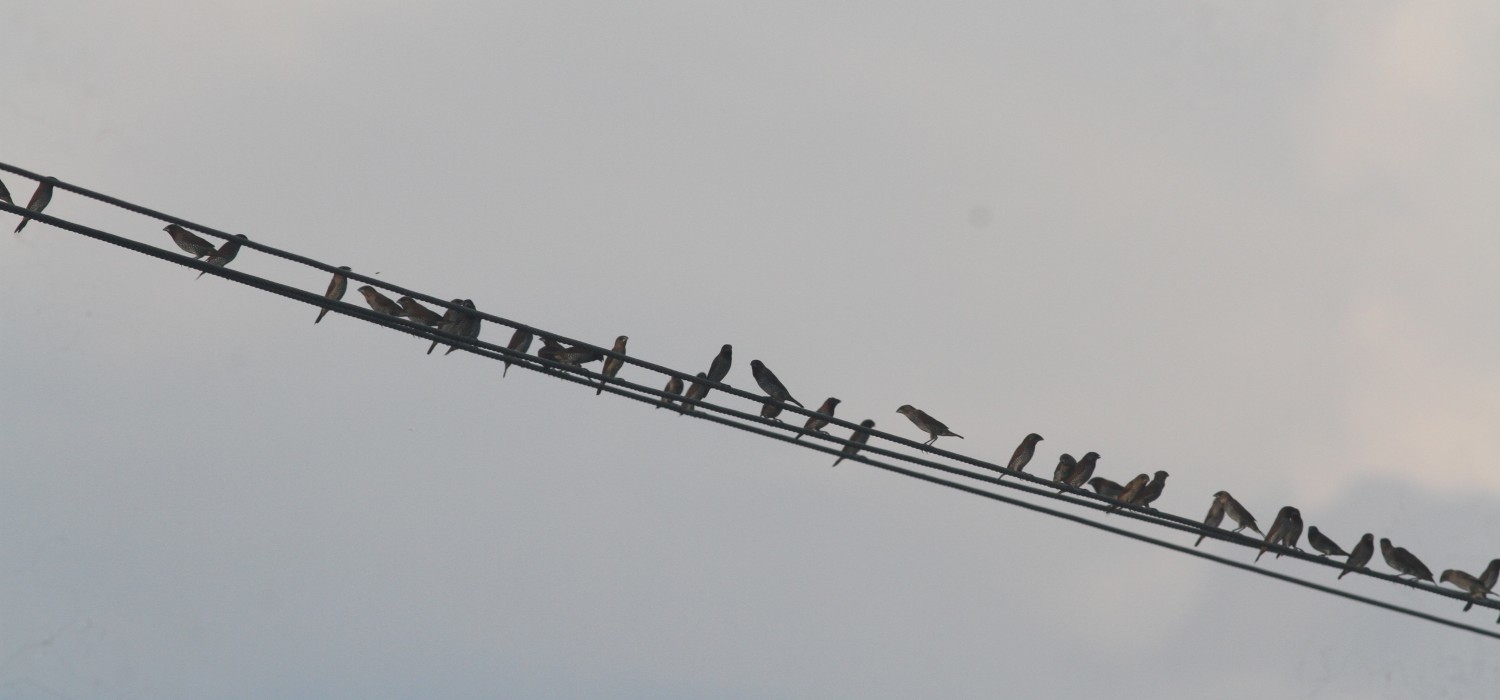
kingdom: Animalia
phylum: Chordata
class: Aves
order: Passeriformes
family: Estrildidae
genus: Lonchura
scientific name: Lonchura punctulata
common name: Scaly-breasted munia
